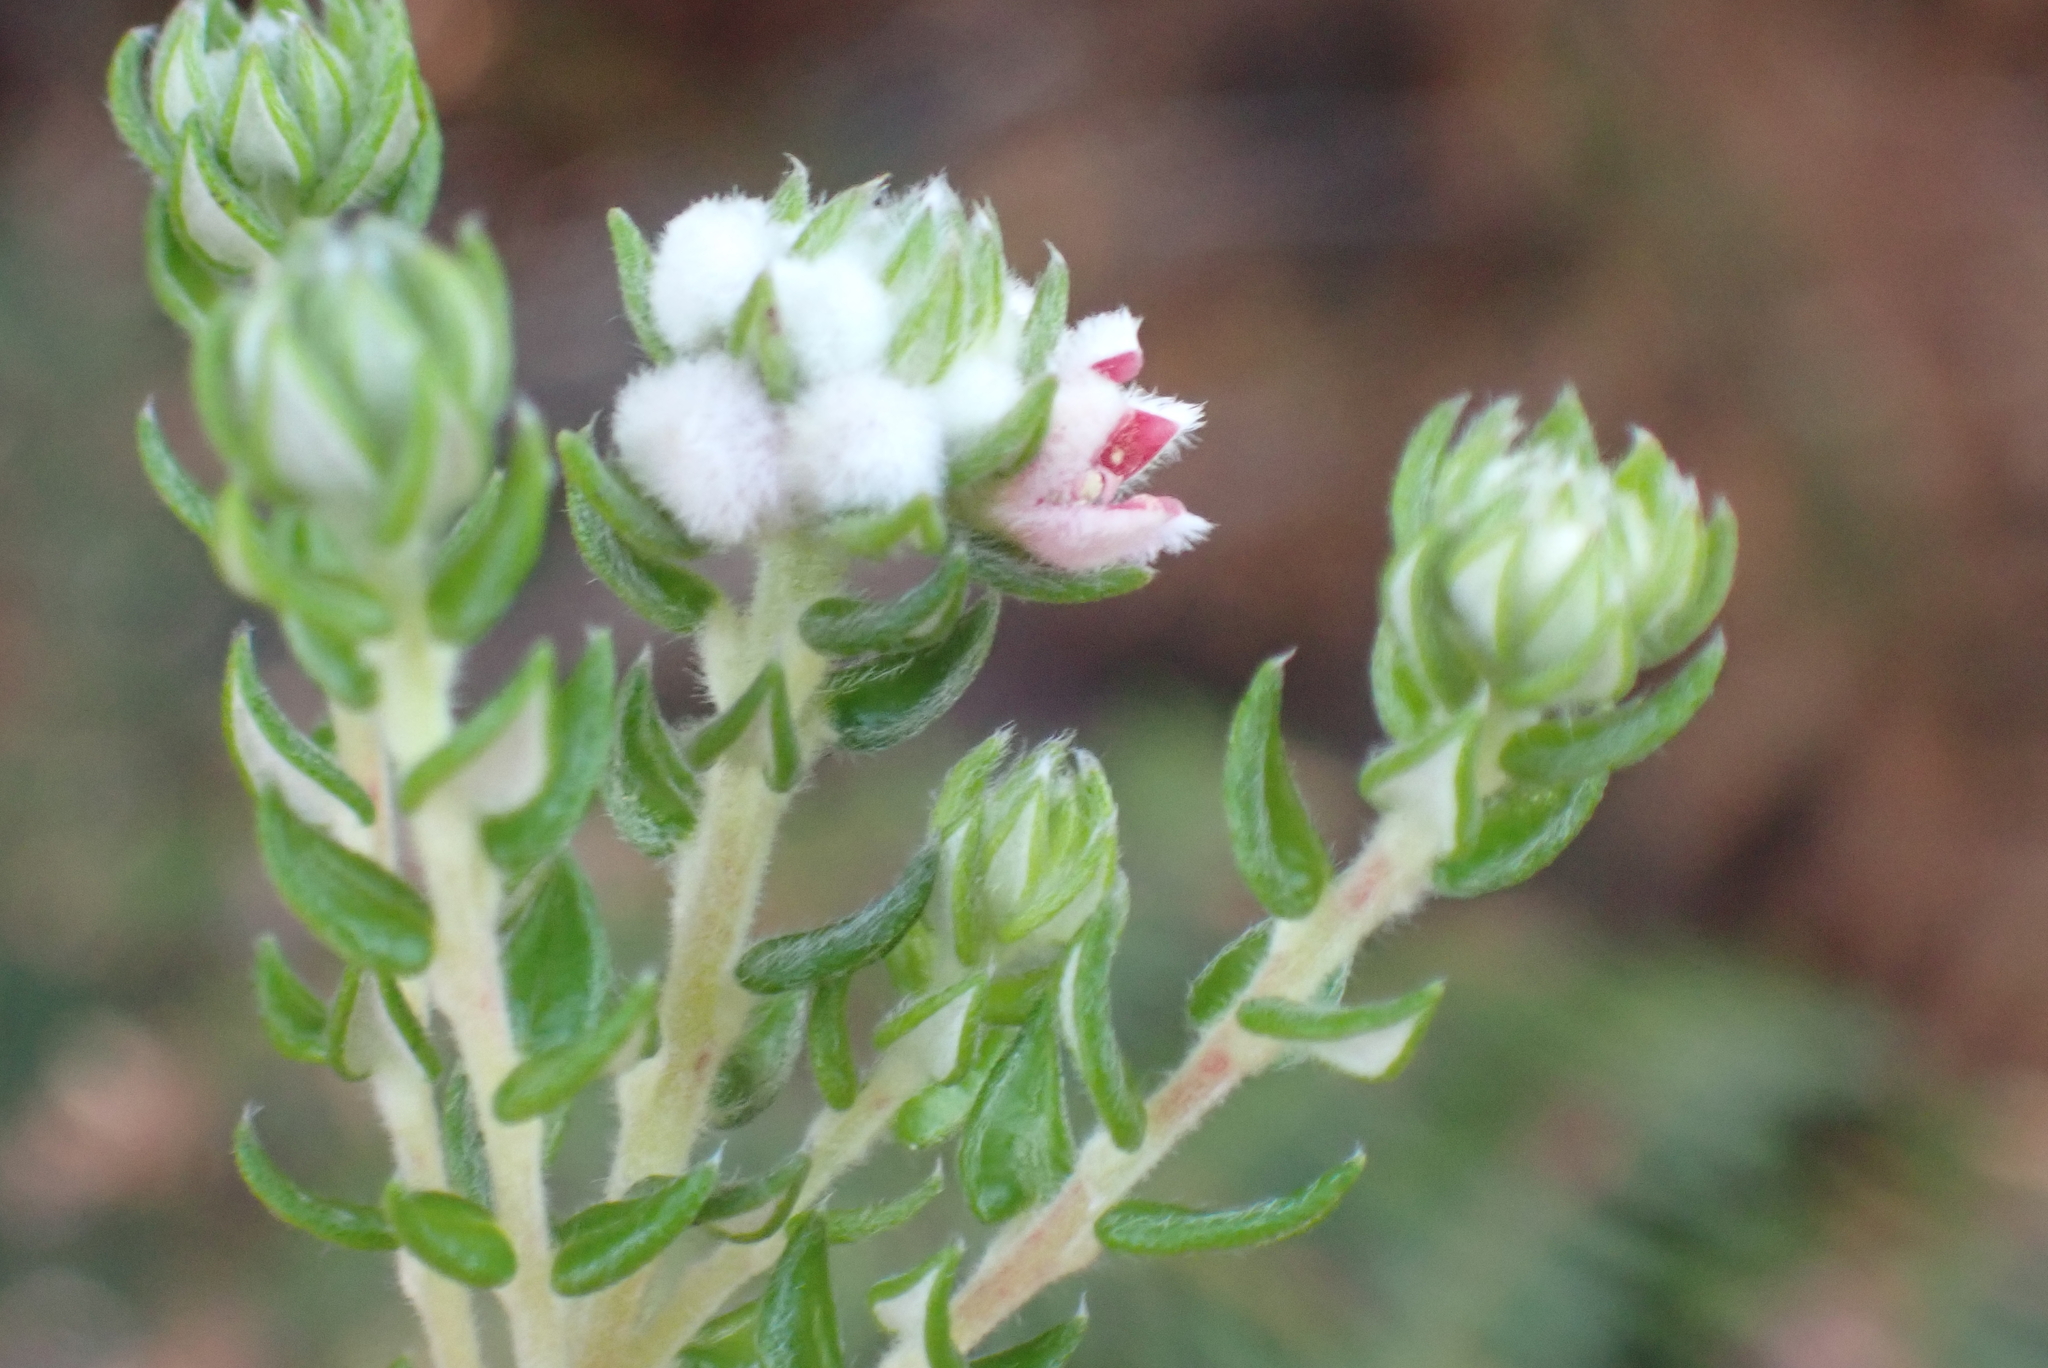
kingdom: Plantae
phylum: Tracheophyta
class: Magnoliopsida
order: Rosales
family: Rhamnaceae
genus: Phylica
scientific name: Phylica purpurea
